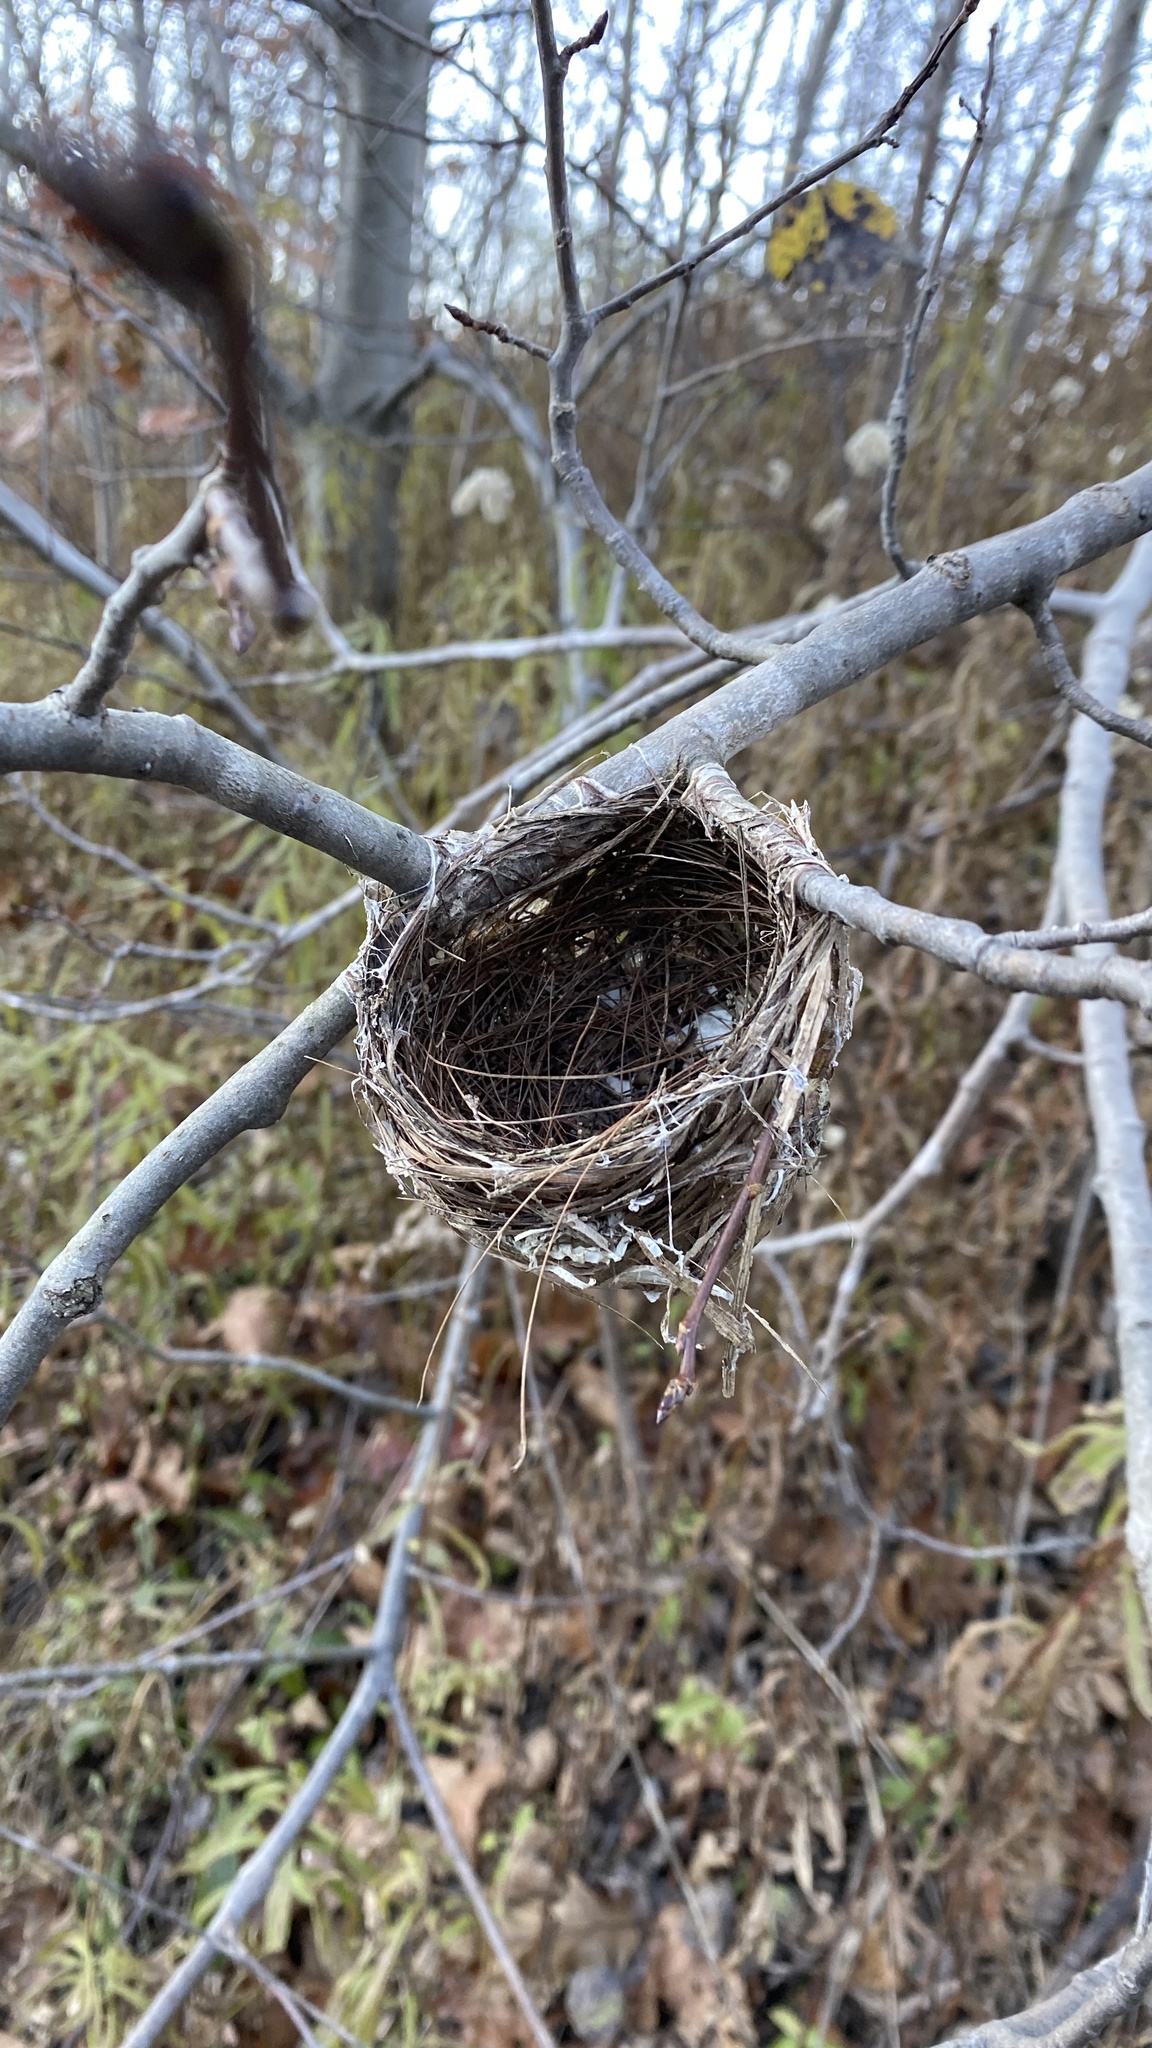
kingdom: Animalia
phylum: Chordata
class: Aves
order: Passeriformes
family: Vireonidae
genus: Vireo
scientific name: Vireo olivaceus
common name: Red-eyed vireo
